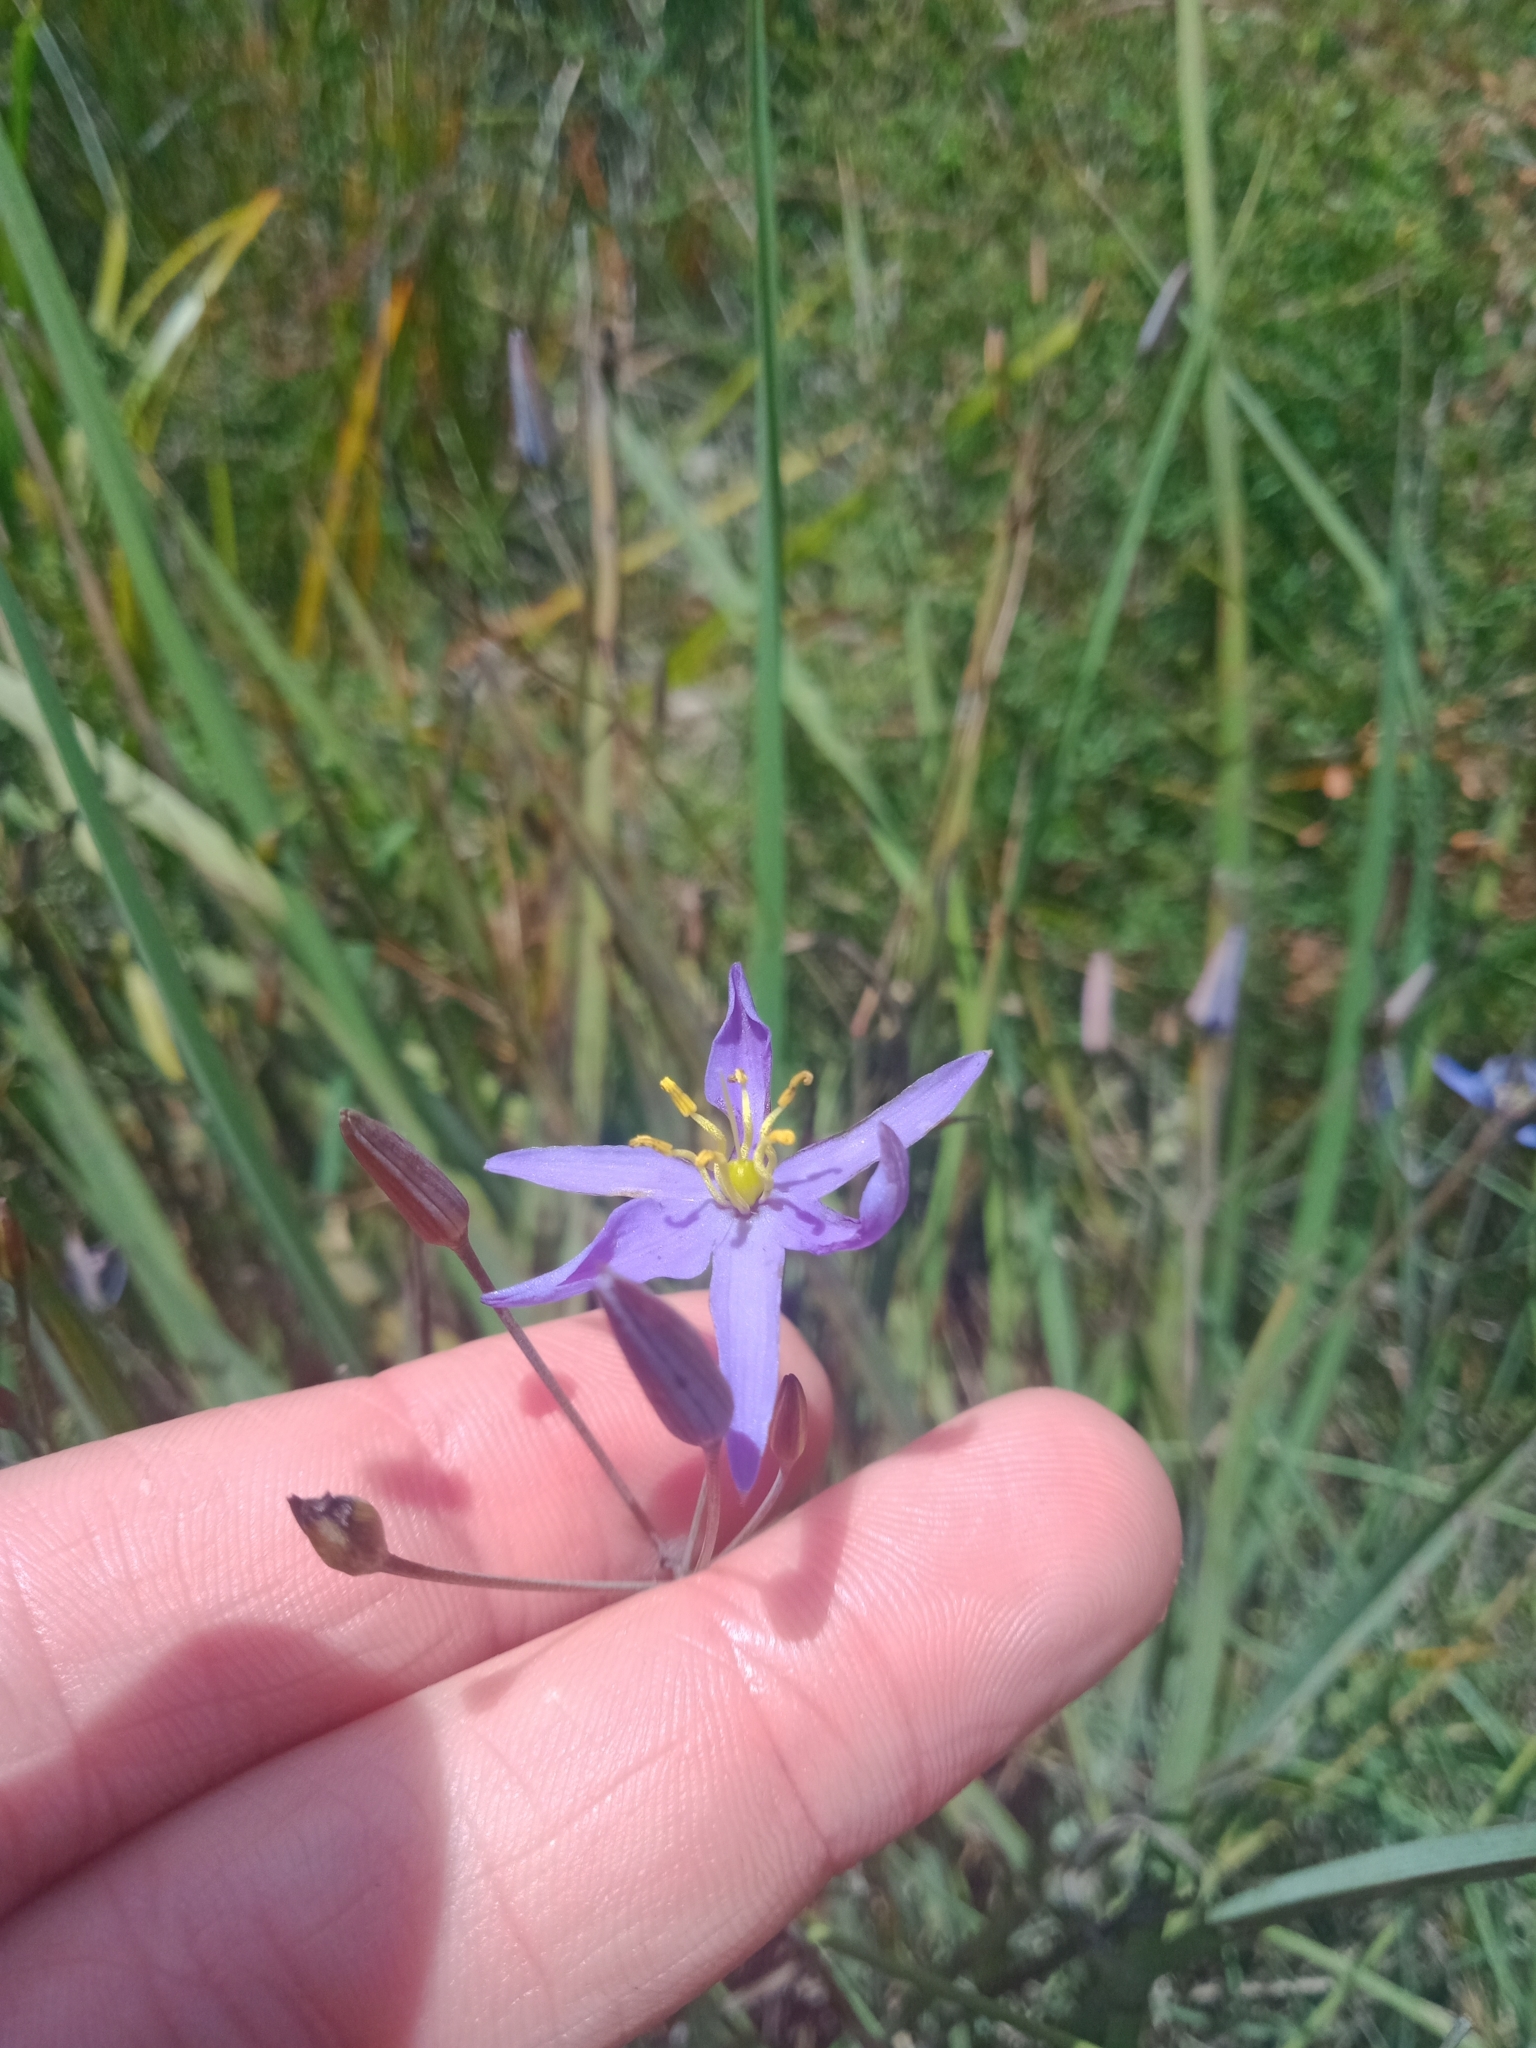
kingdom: Plantae
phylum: Tracheophyta
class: Liliopsida
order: Asparagales
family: Asphodelaceae
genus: Thelionema
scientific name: Thelionema caespitosum
